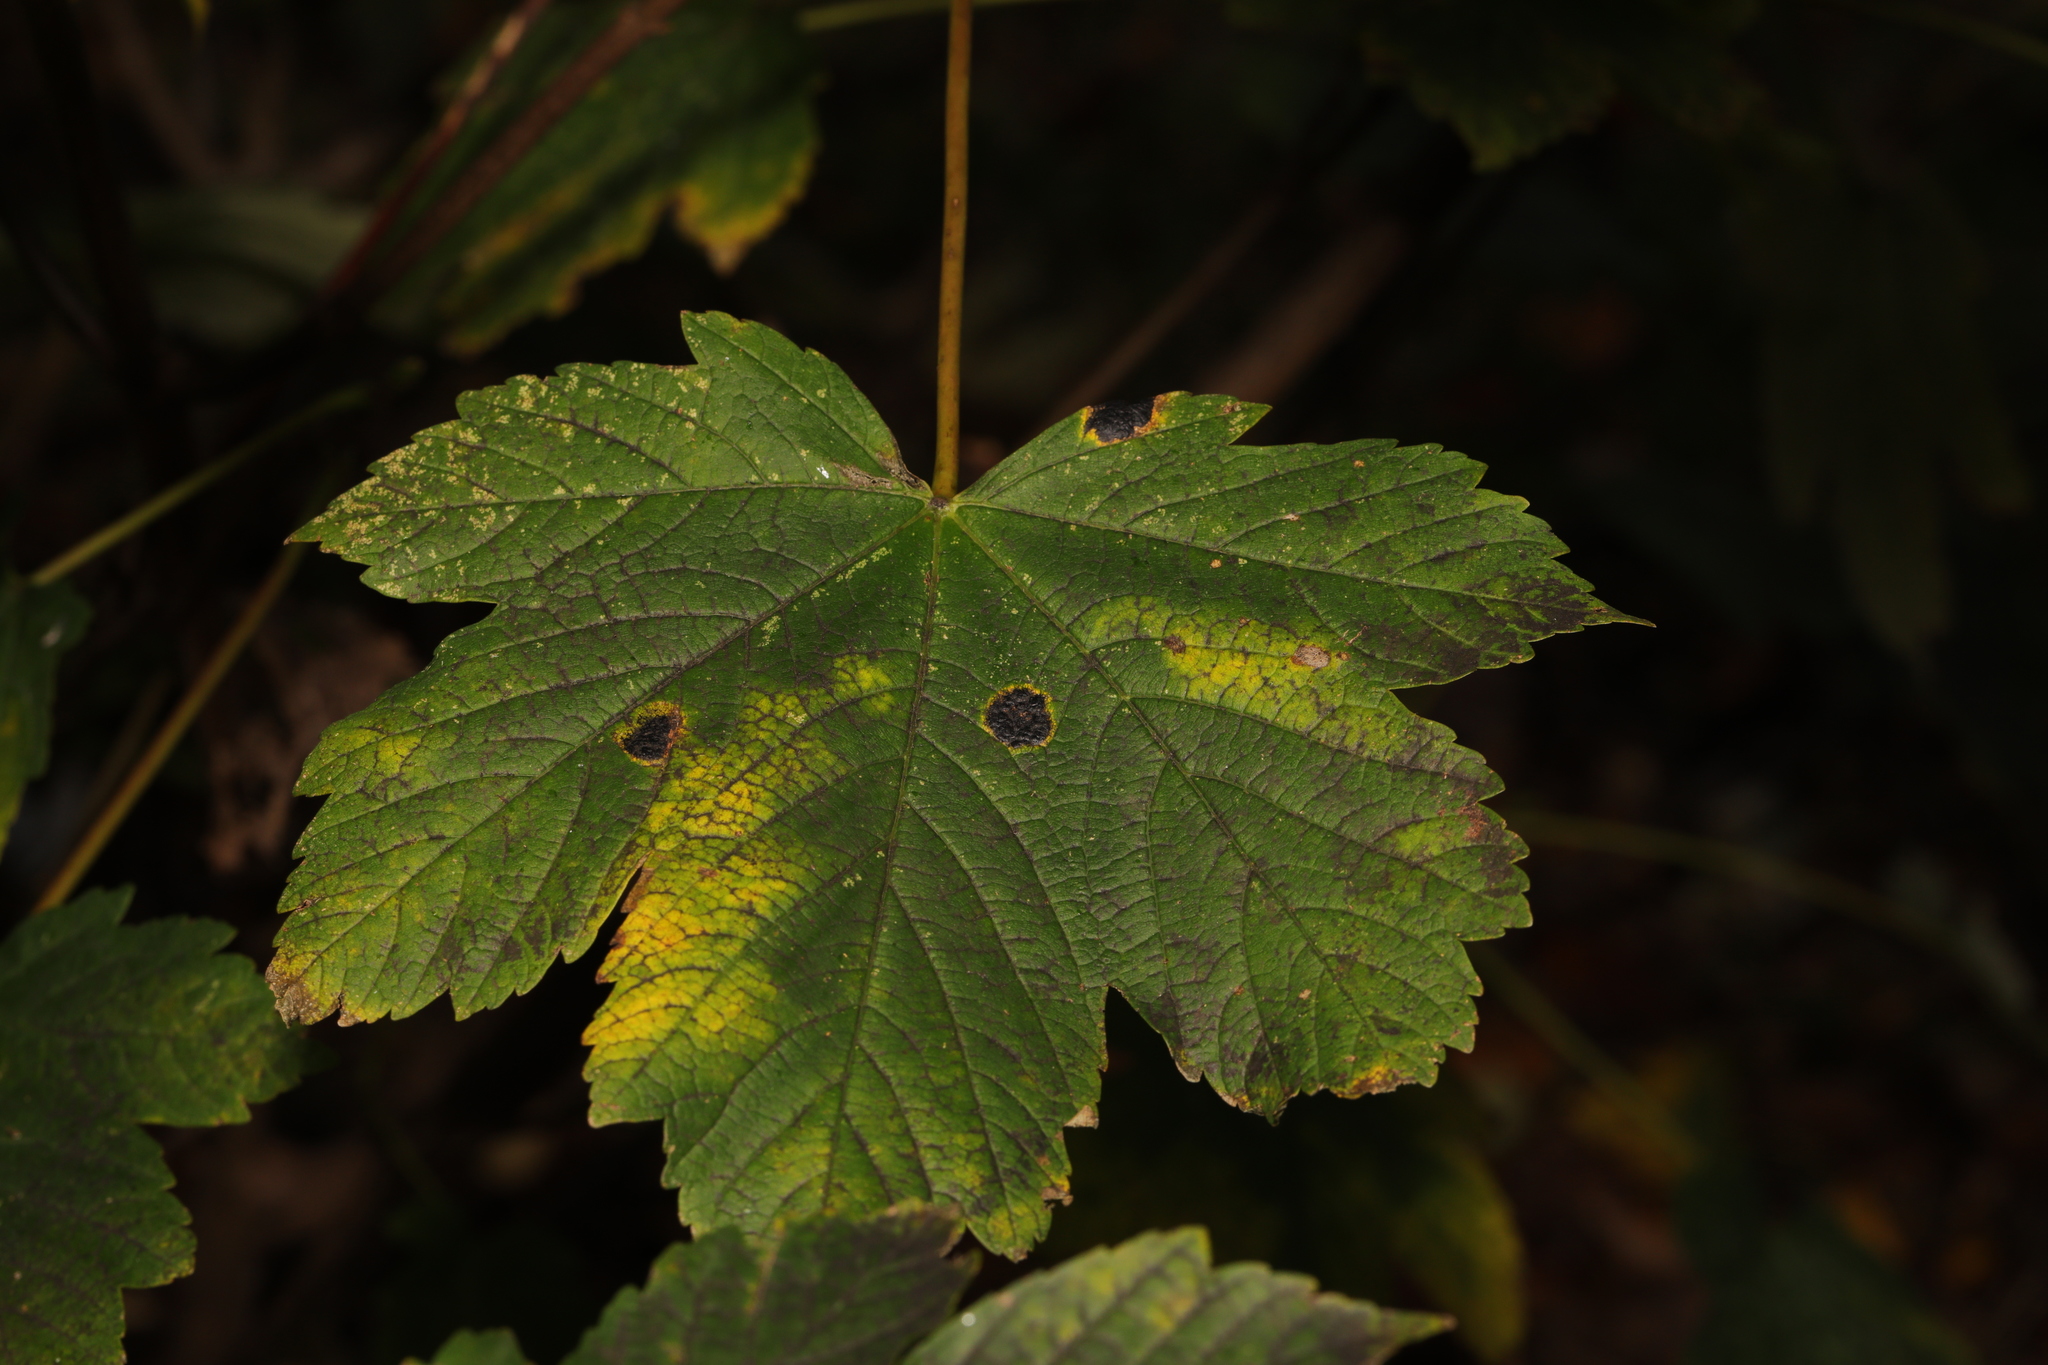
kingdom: Fungi
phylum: Ascomycota
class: Leotiomycetes
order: Rhytismatales
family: Rhytismataceae
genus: Rhytisma
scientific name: Rhytisma acerinum
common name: European tar spot
